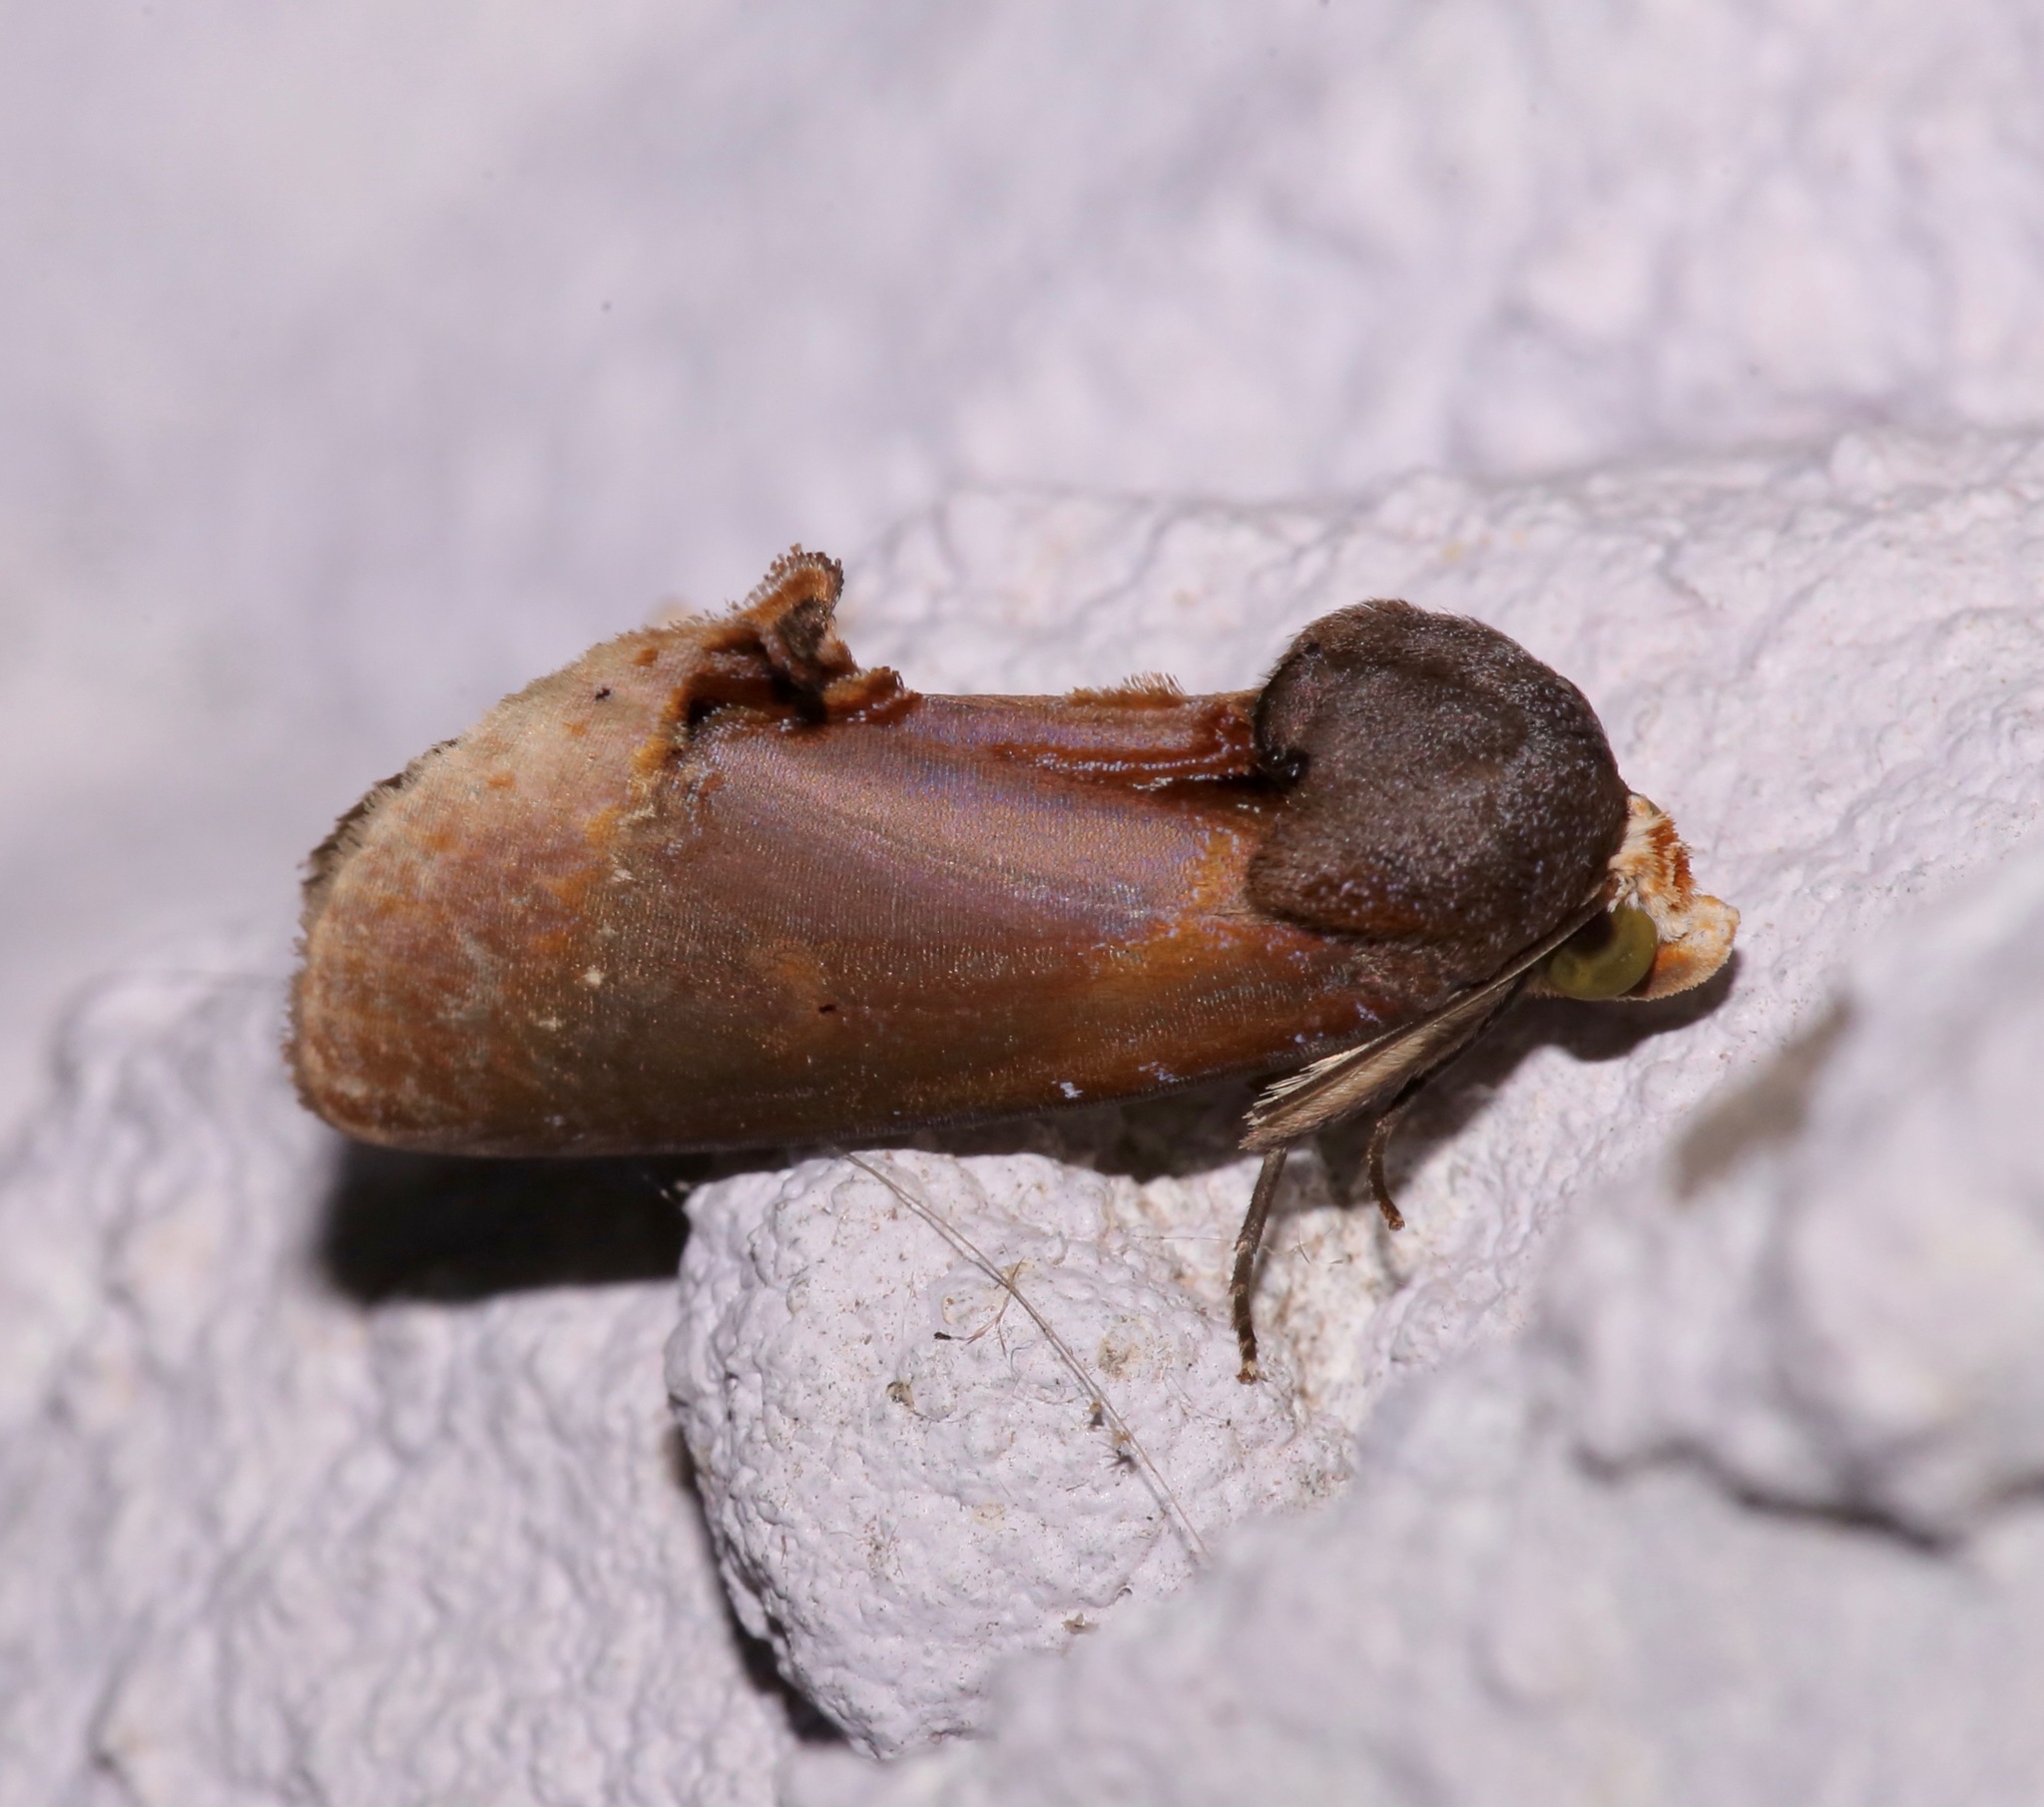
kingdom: Animalia
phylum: Arthropoda
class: Insecta
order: Lepidoptera
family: Erebidae
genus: Gonodonta
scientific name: Gonodonta lincus
